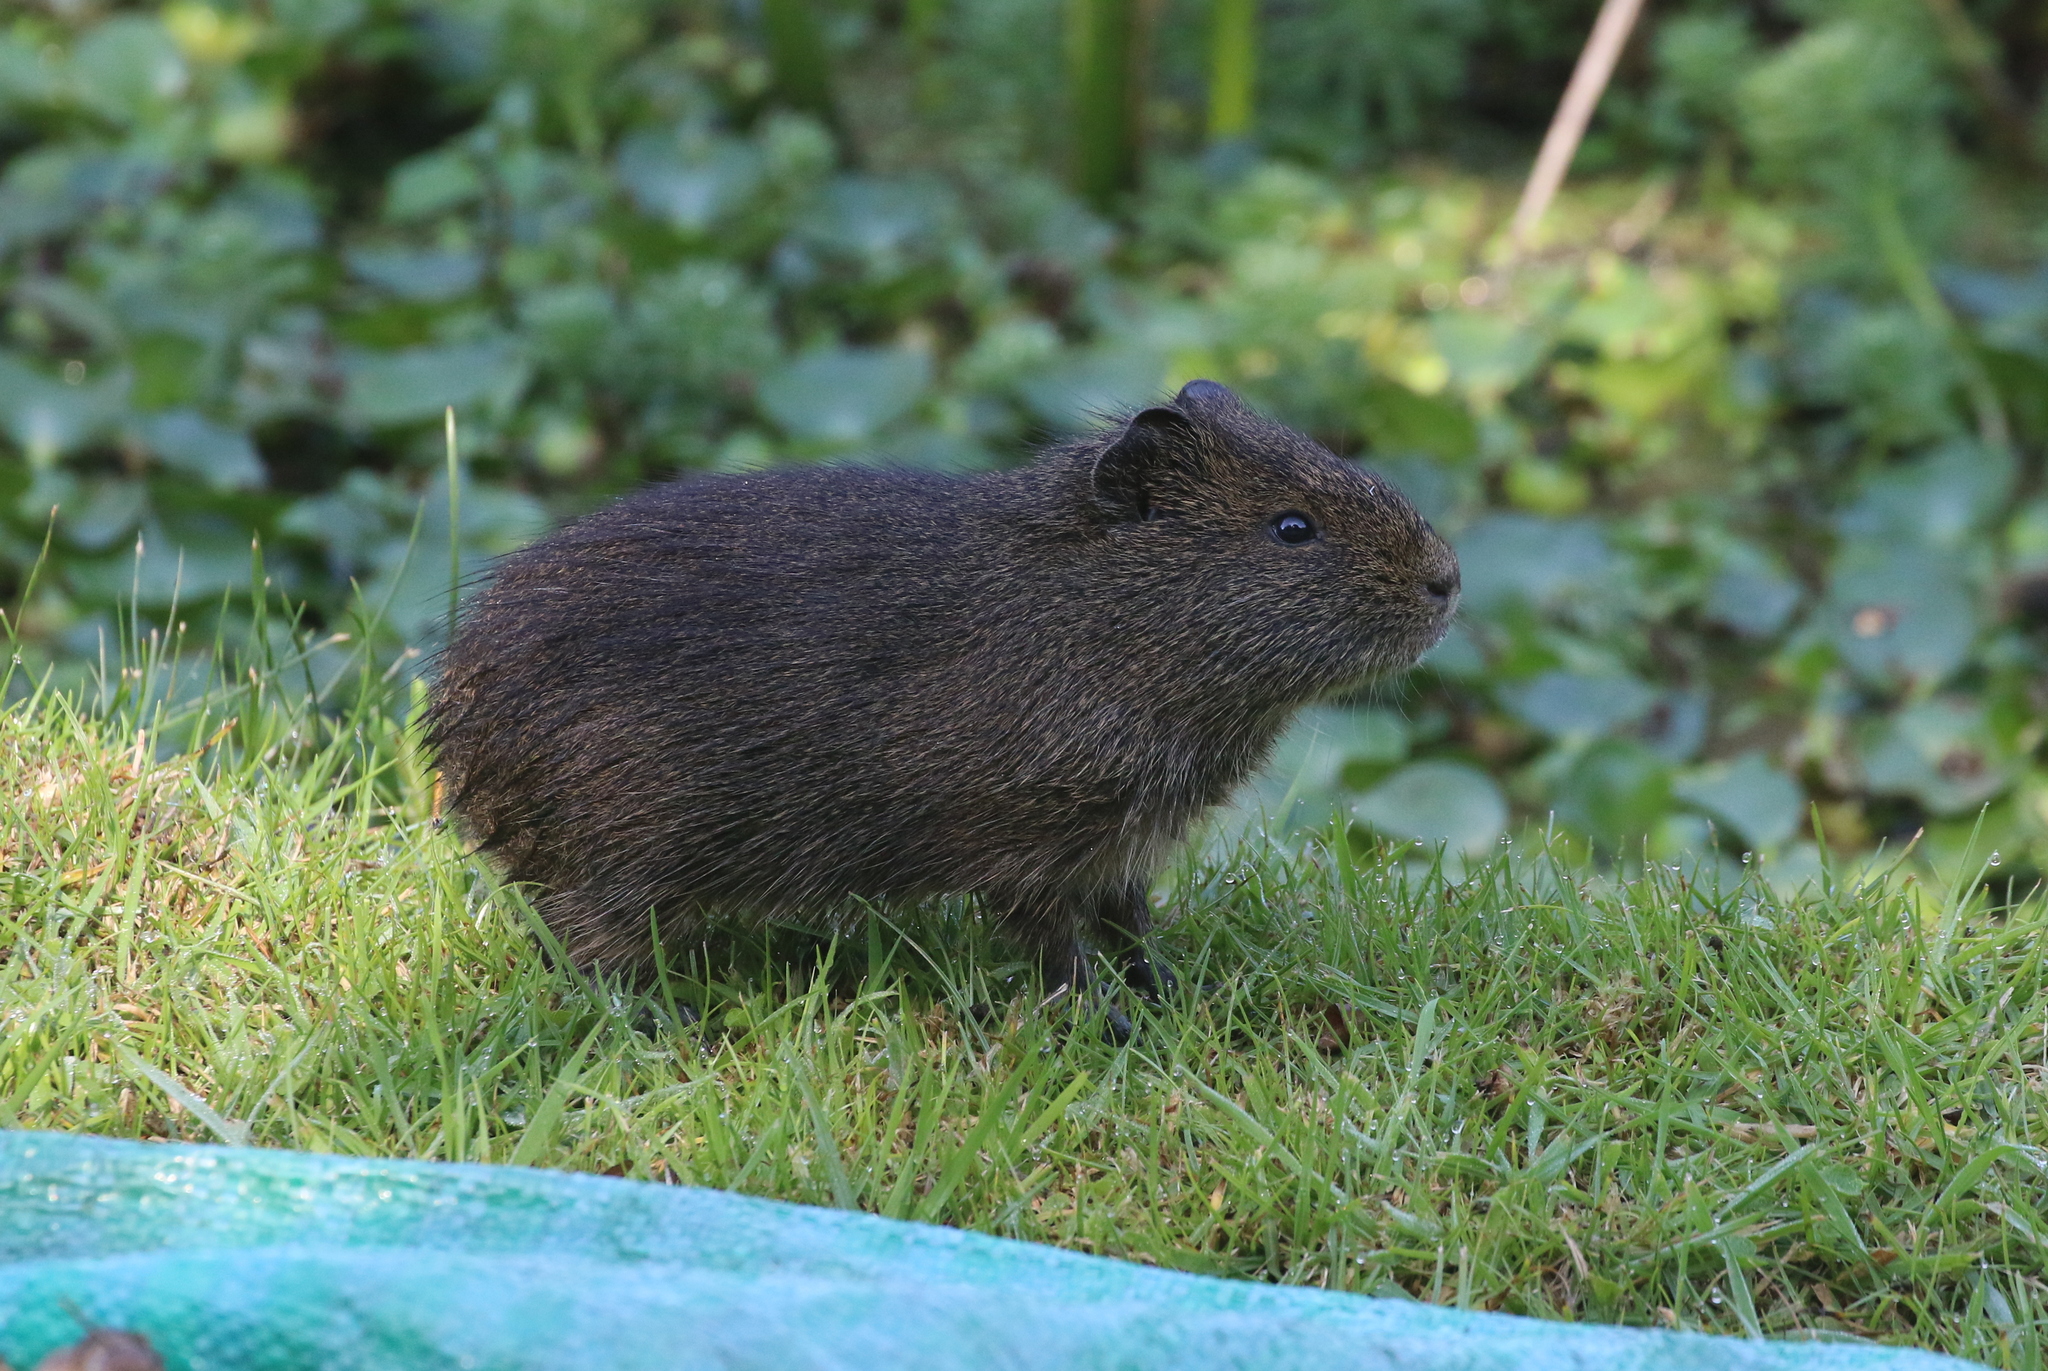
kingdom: Animalia
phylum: Chordata
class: Mammalia
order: Rodentia
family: Caviidae
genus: Cavia
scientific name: Cavia aperea
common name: Brazilian guinea pig
